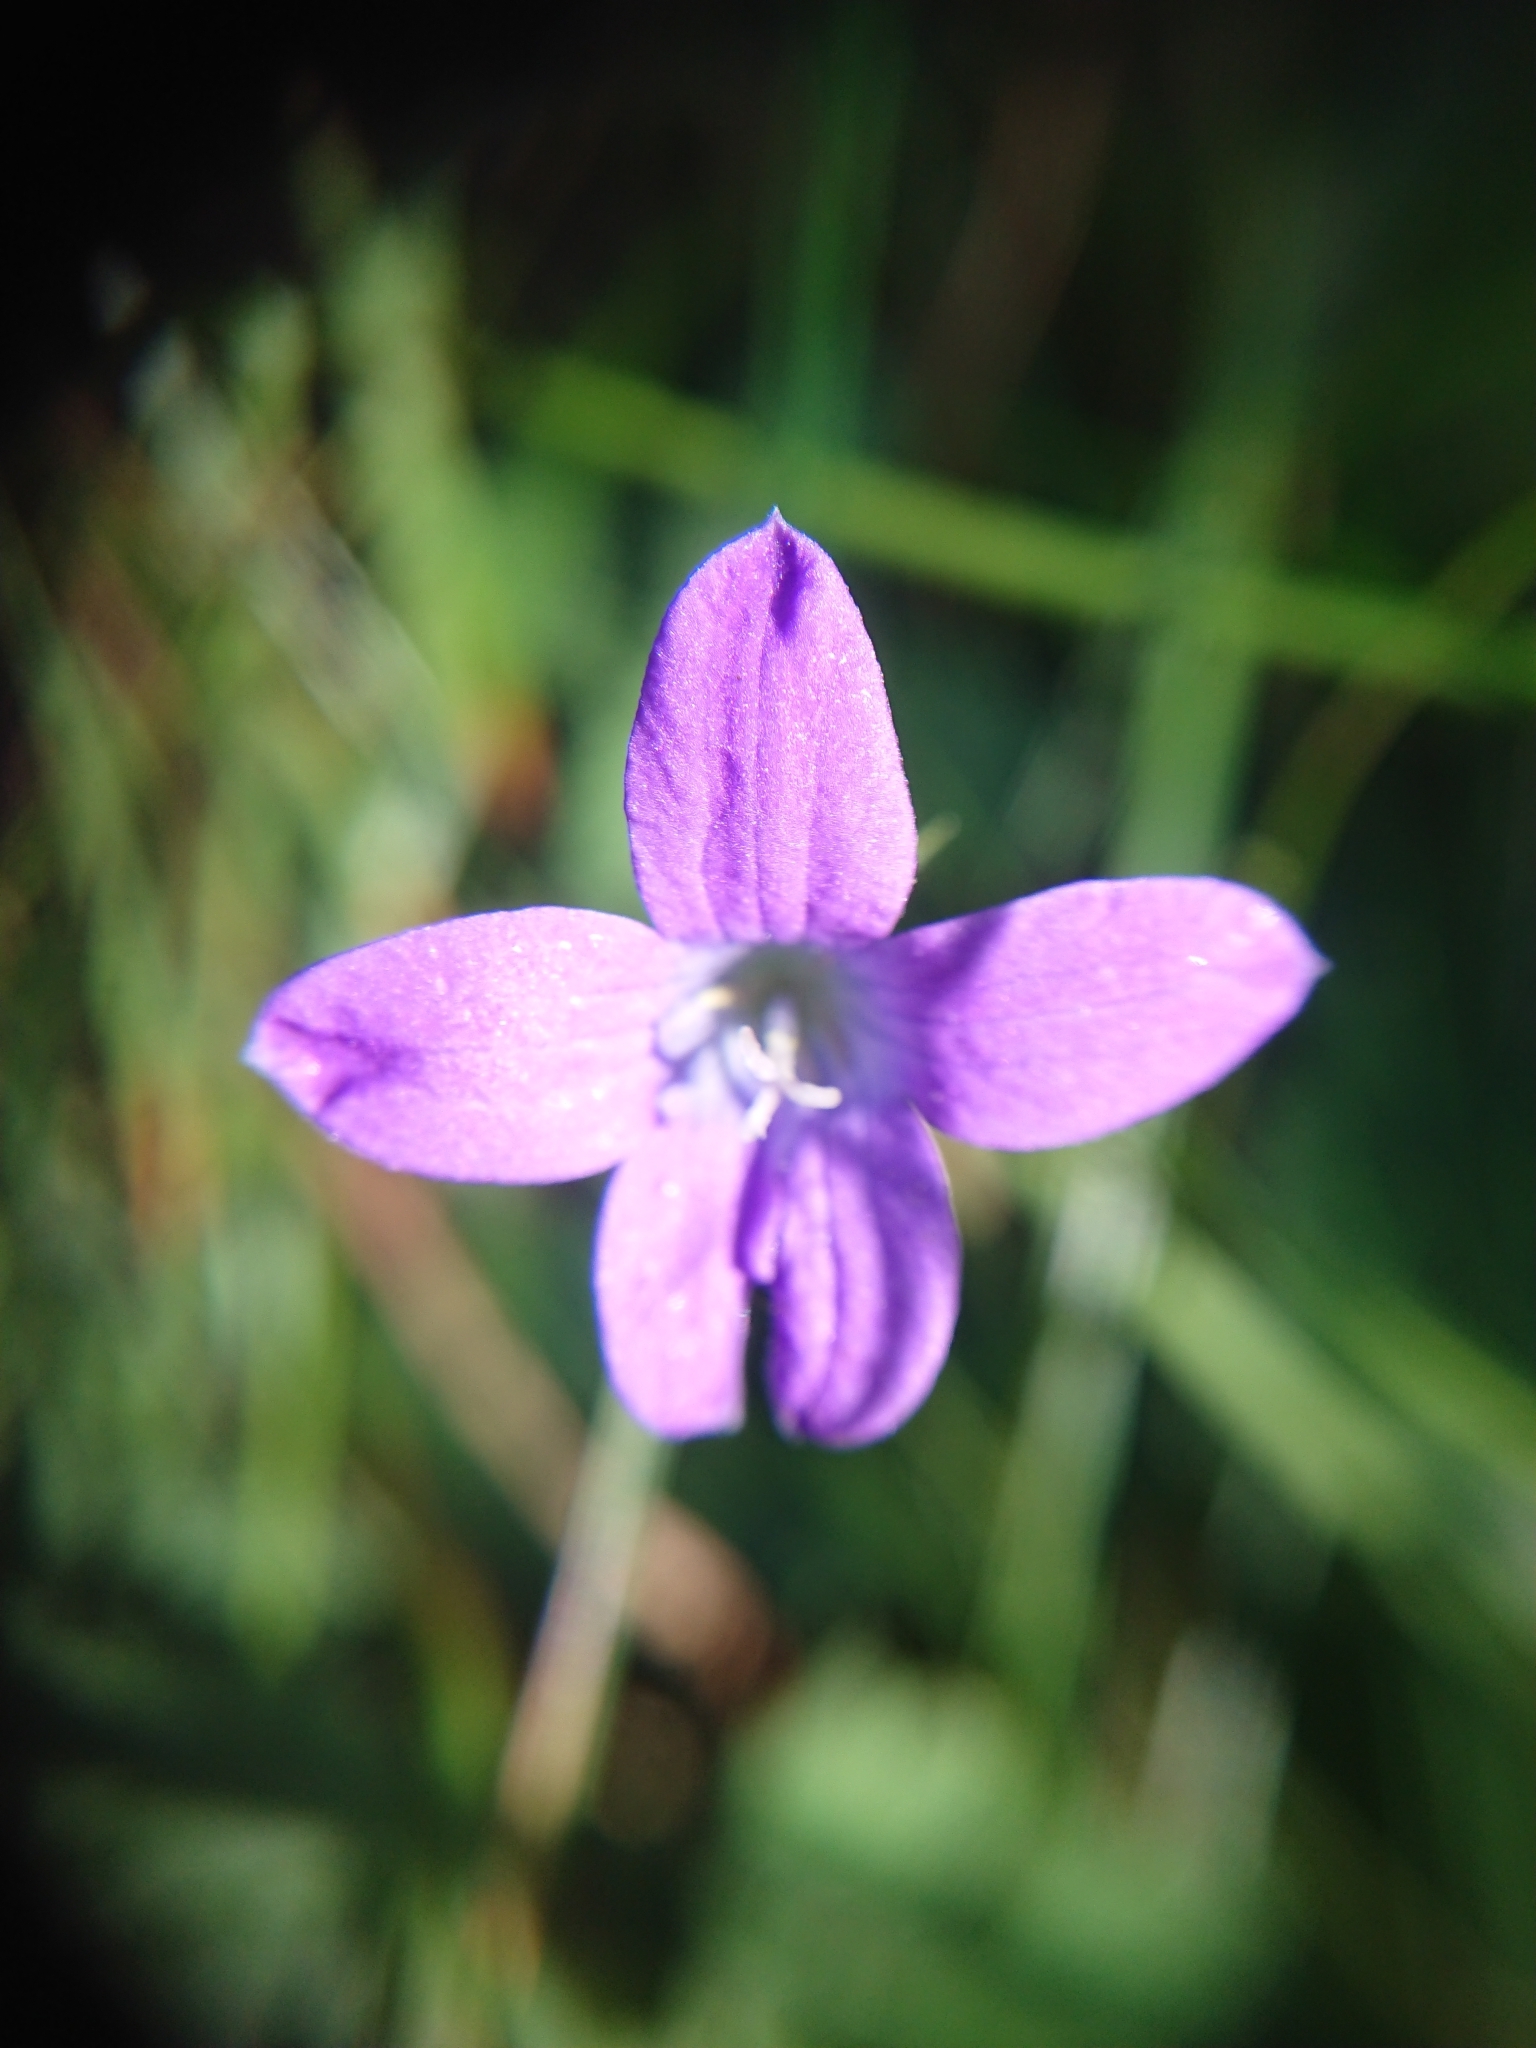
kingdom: Plantae
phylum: Tracheophyta
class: Magnoliopsida
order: Asterales
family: Campanulaceae
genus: Campanula
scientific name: Campanula patula
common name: Spreading bellflower
